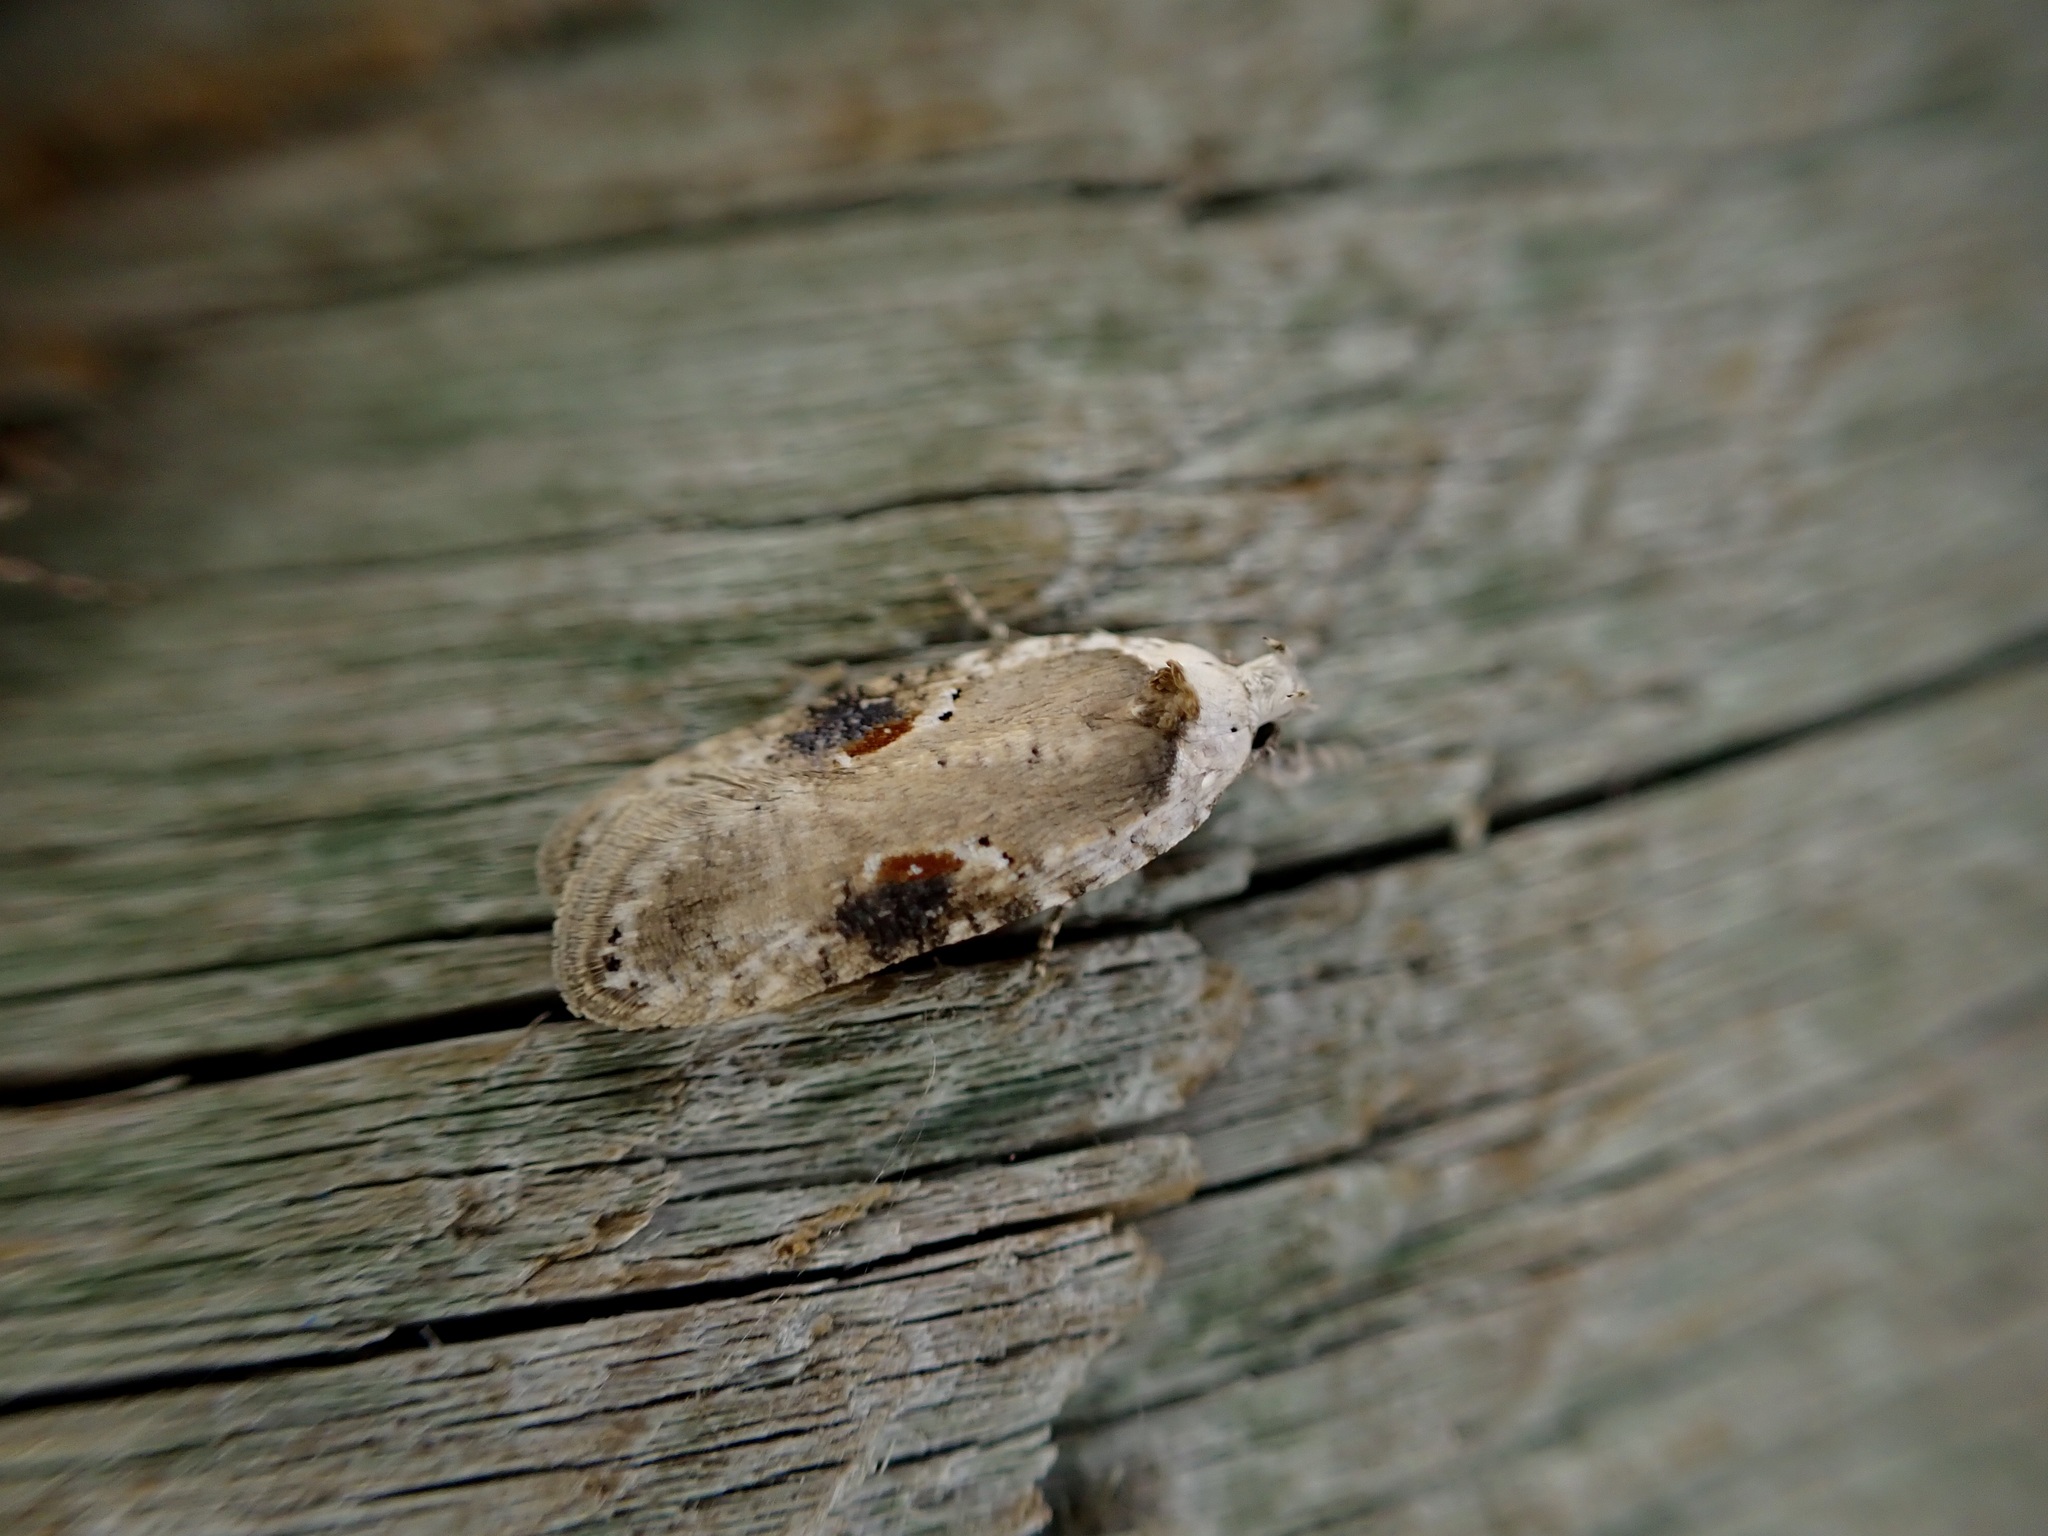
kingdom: Animalia
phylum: Arthropoda
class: Insecta
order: Lepidoptera
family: Depressariidae
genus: Agonopterix
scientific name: Agonopterix alstroemeriana
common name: Moth
